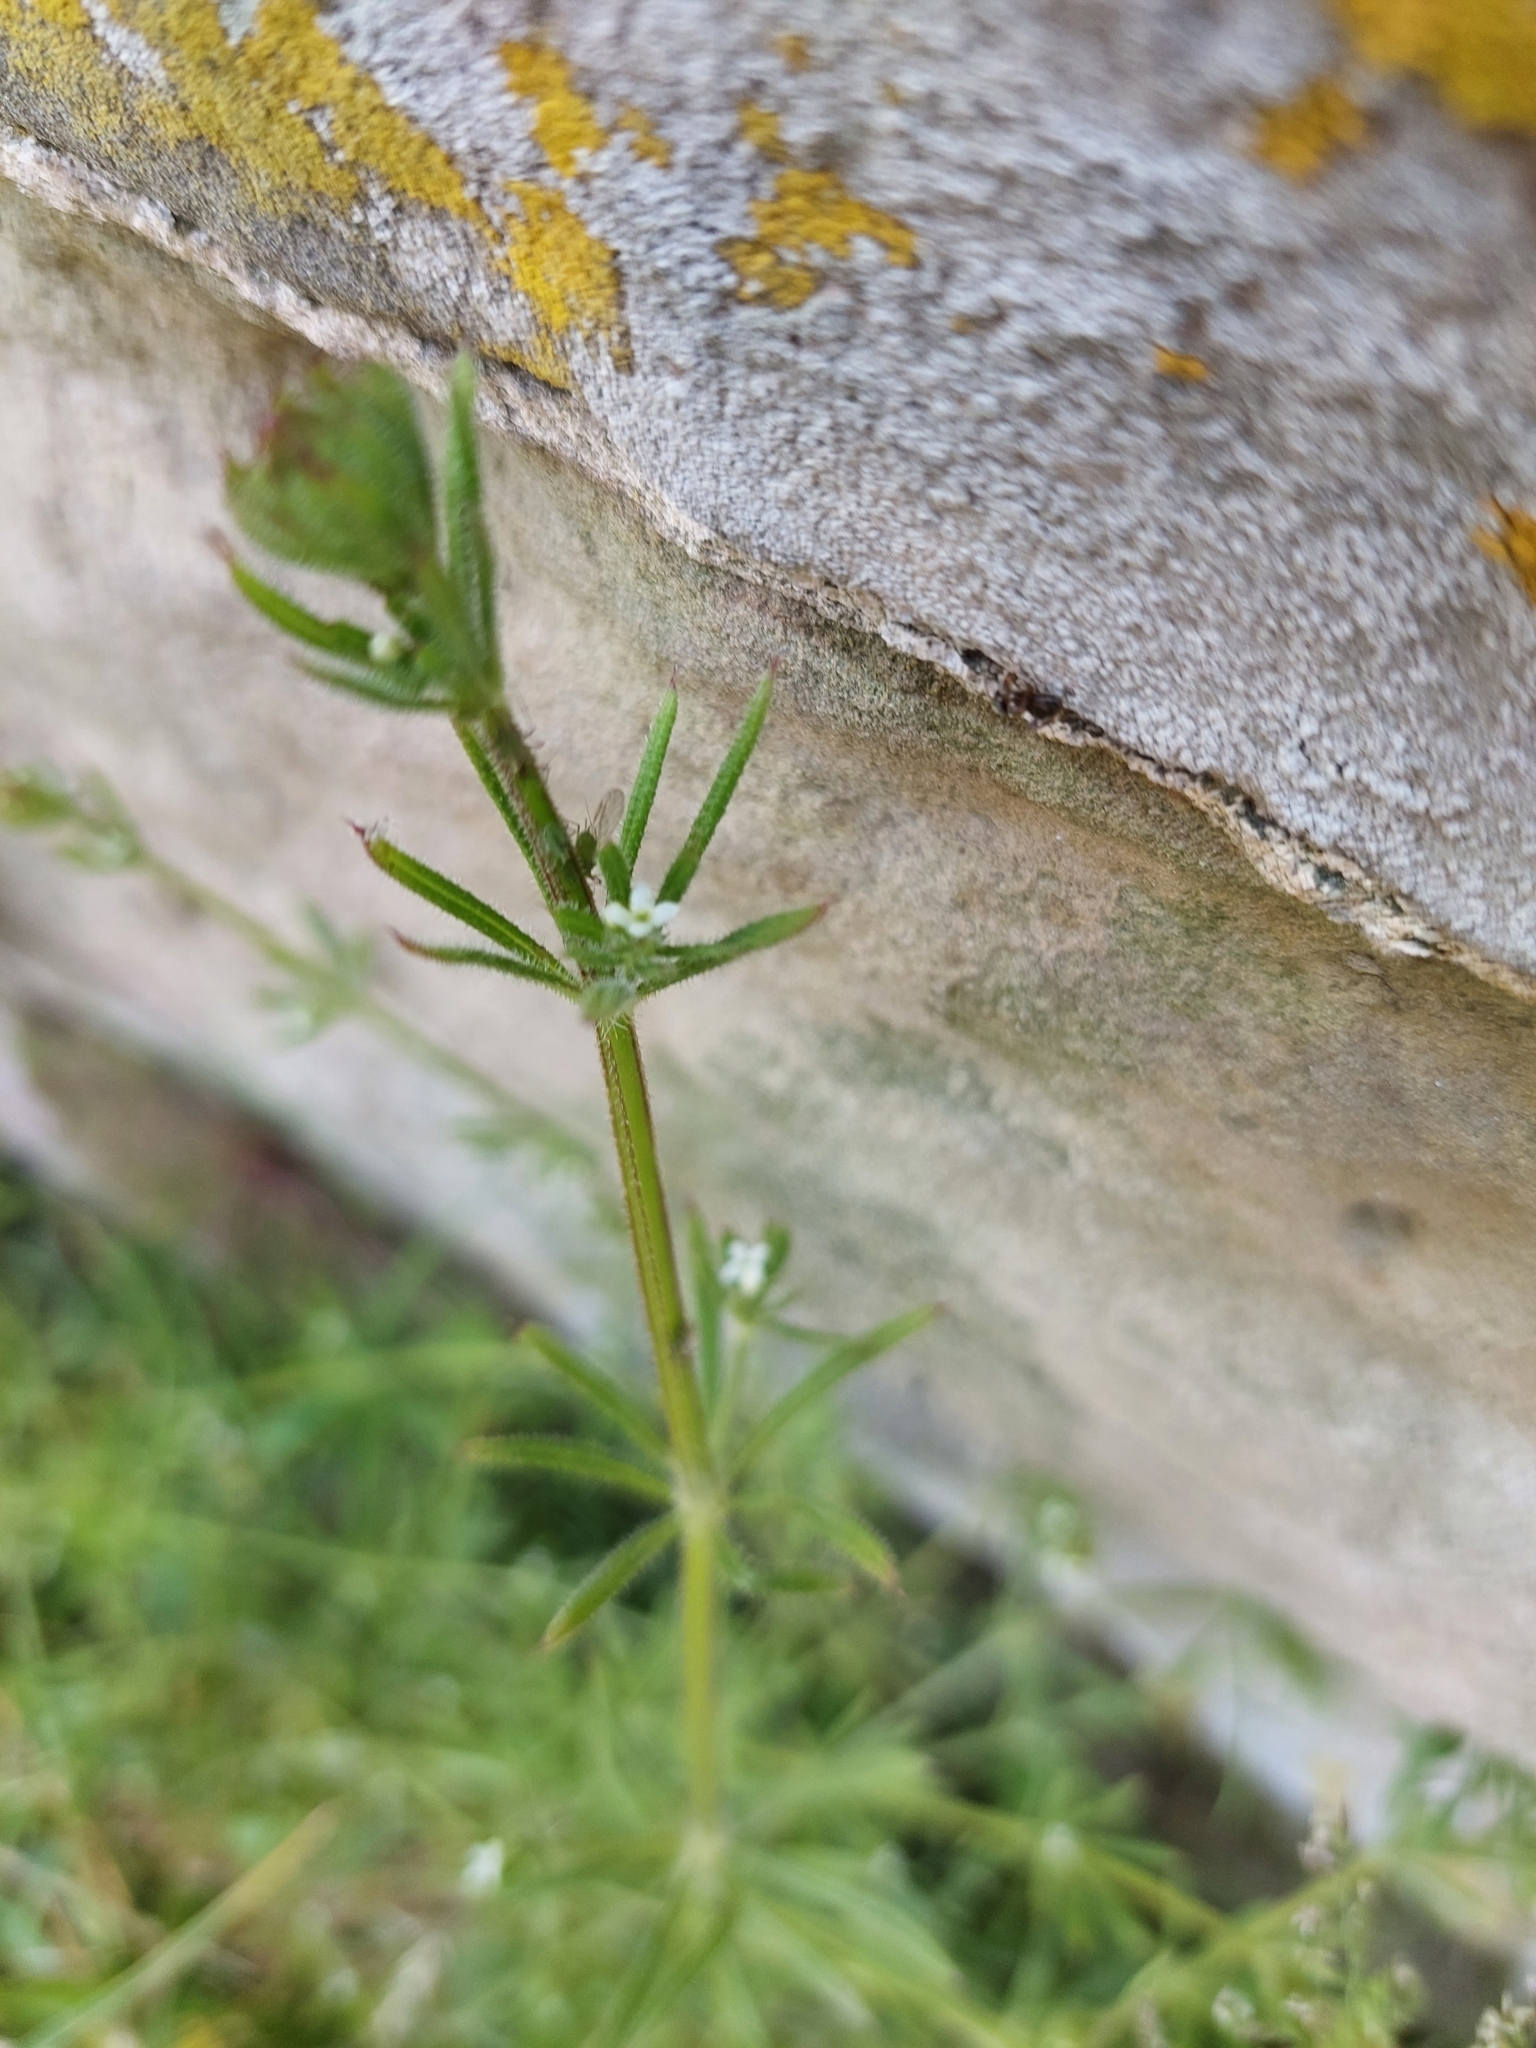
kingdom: Plantae
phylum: Tracheophyta
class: Magnoliopsida
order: Gentianales
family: Rubiaceae
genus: Galium
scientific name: Galium aparine
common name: Cleavers
